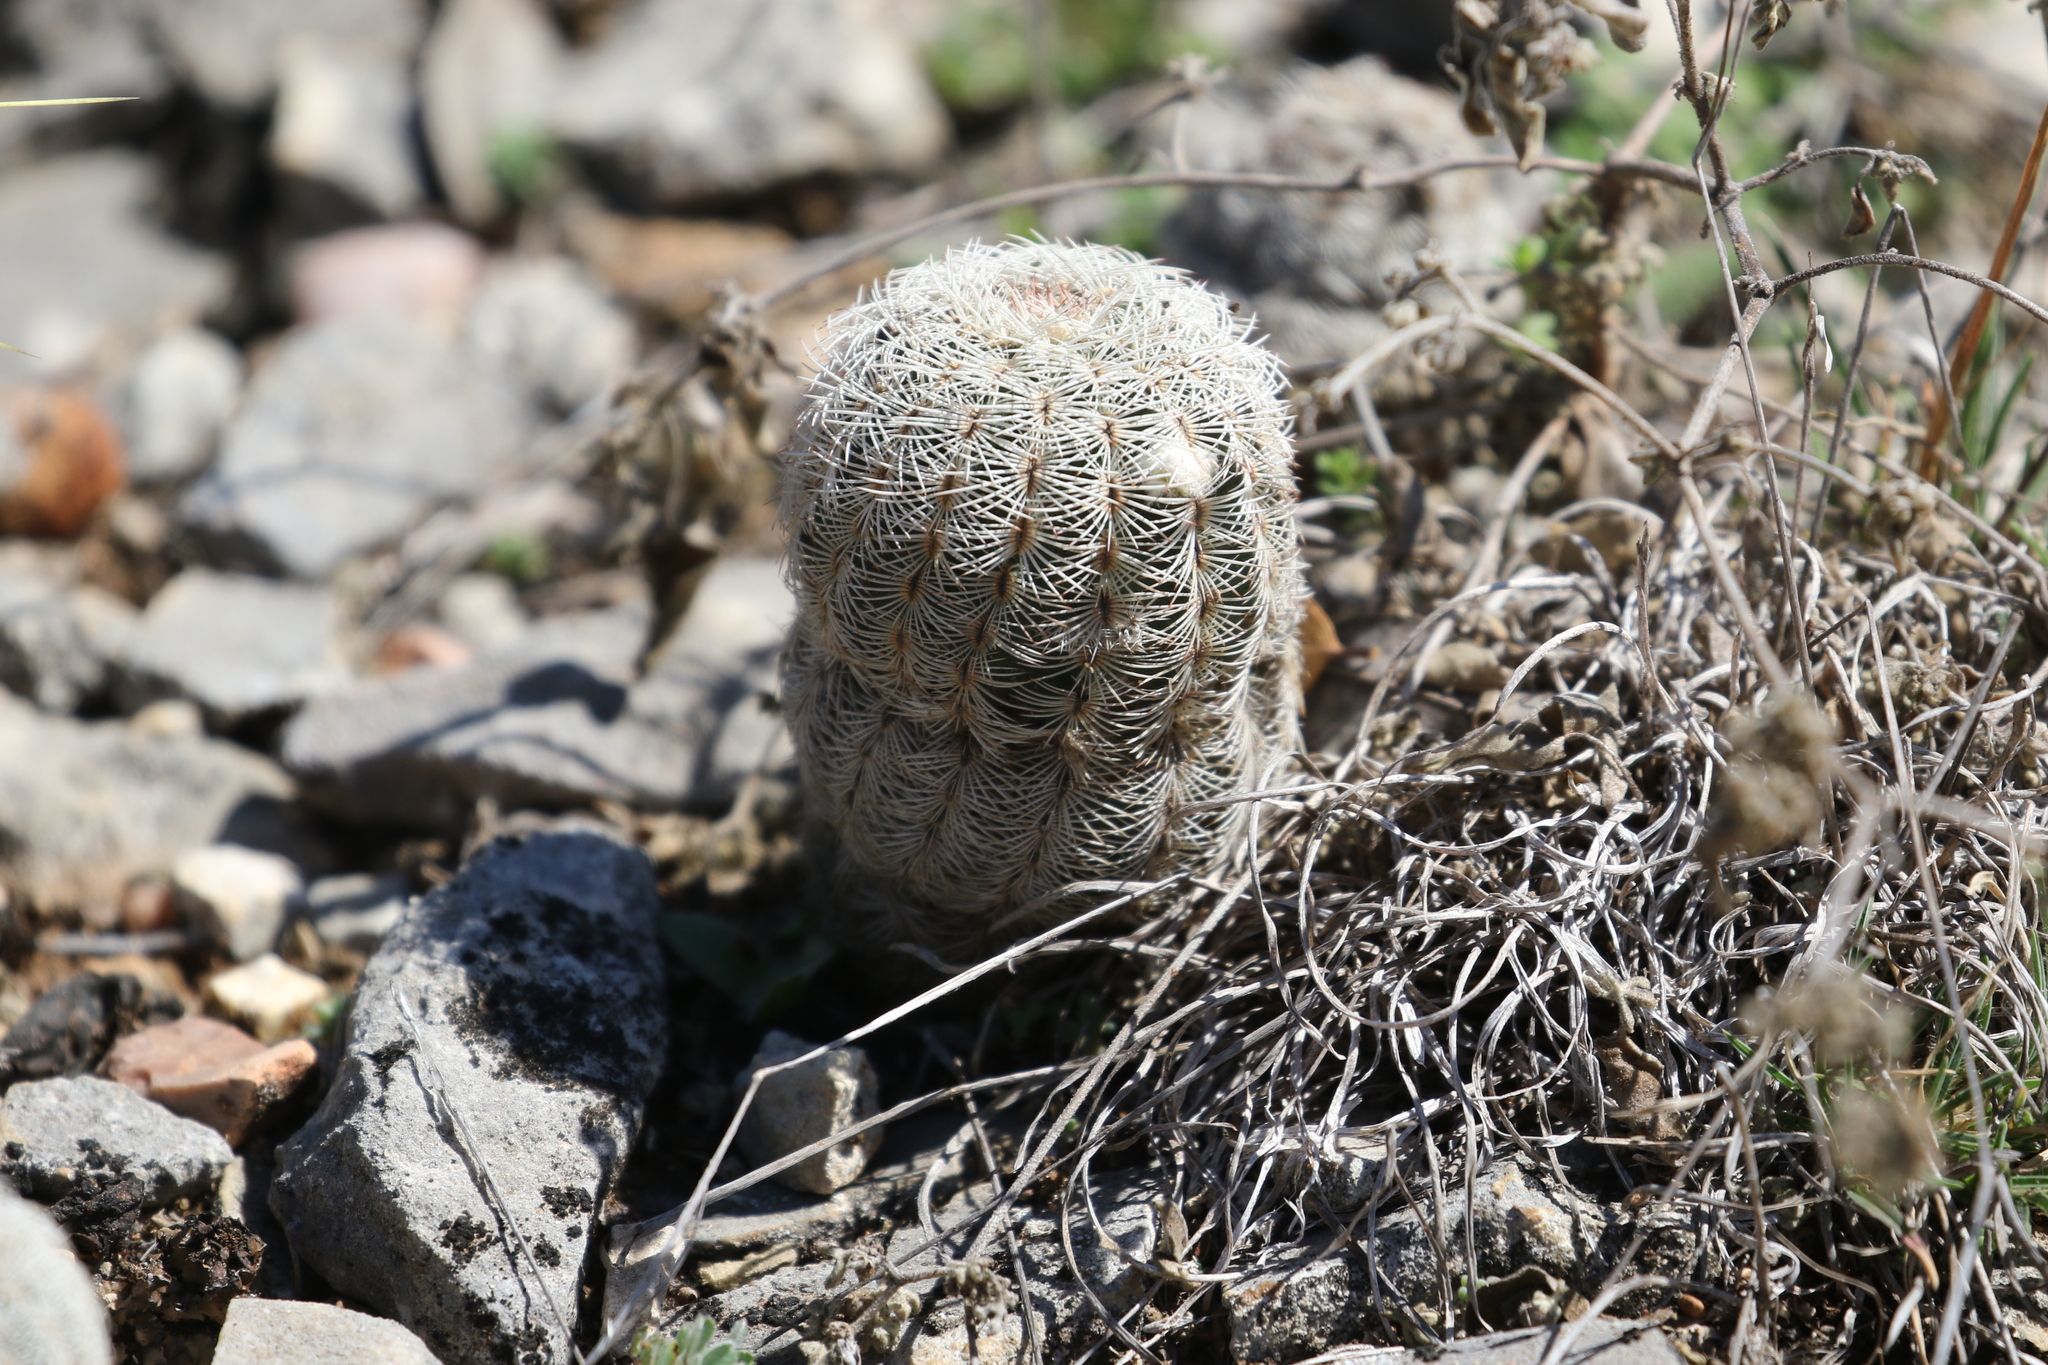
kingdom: Plantae
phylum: Tracheophyta
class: Magnoliopsida
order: Caryophyllales
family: Cactaceae
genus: Echinocereus
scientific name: Echinocereus reichenbachii
